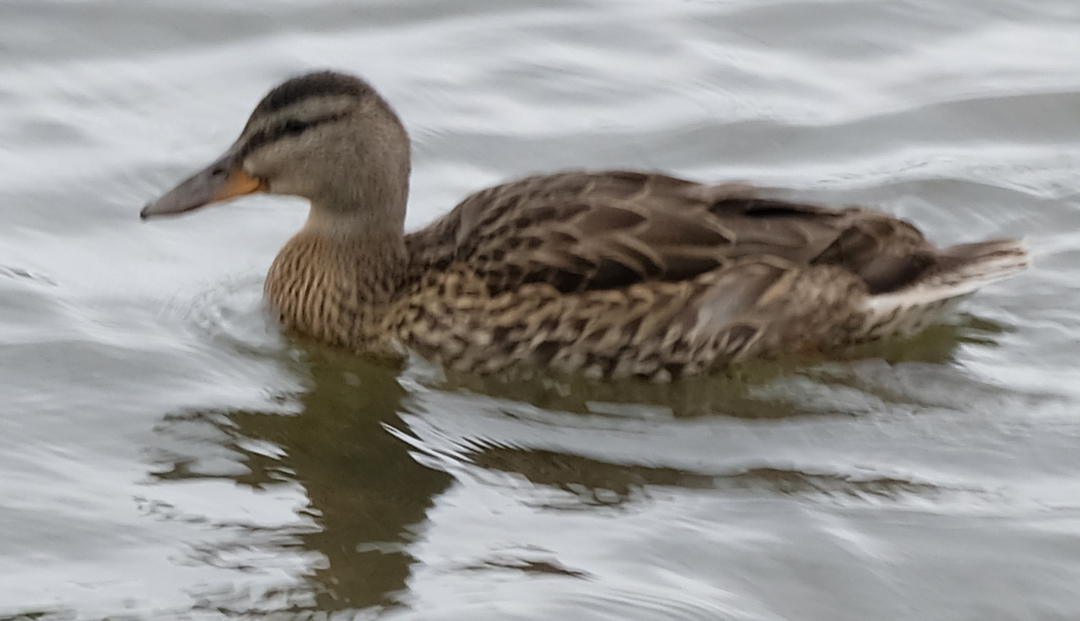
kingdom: Animalia
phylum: Chordata
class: Aves
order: Anseriformes
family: Anatidae
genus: Anas
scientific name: Anas platyrhynchos
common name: Mallard
